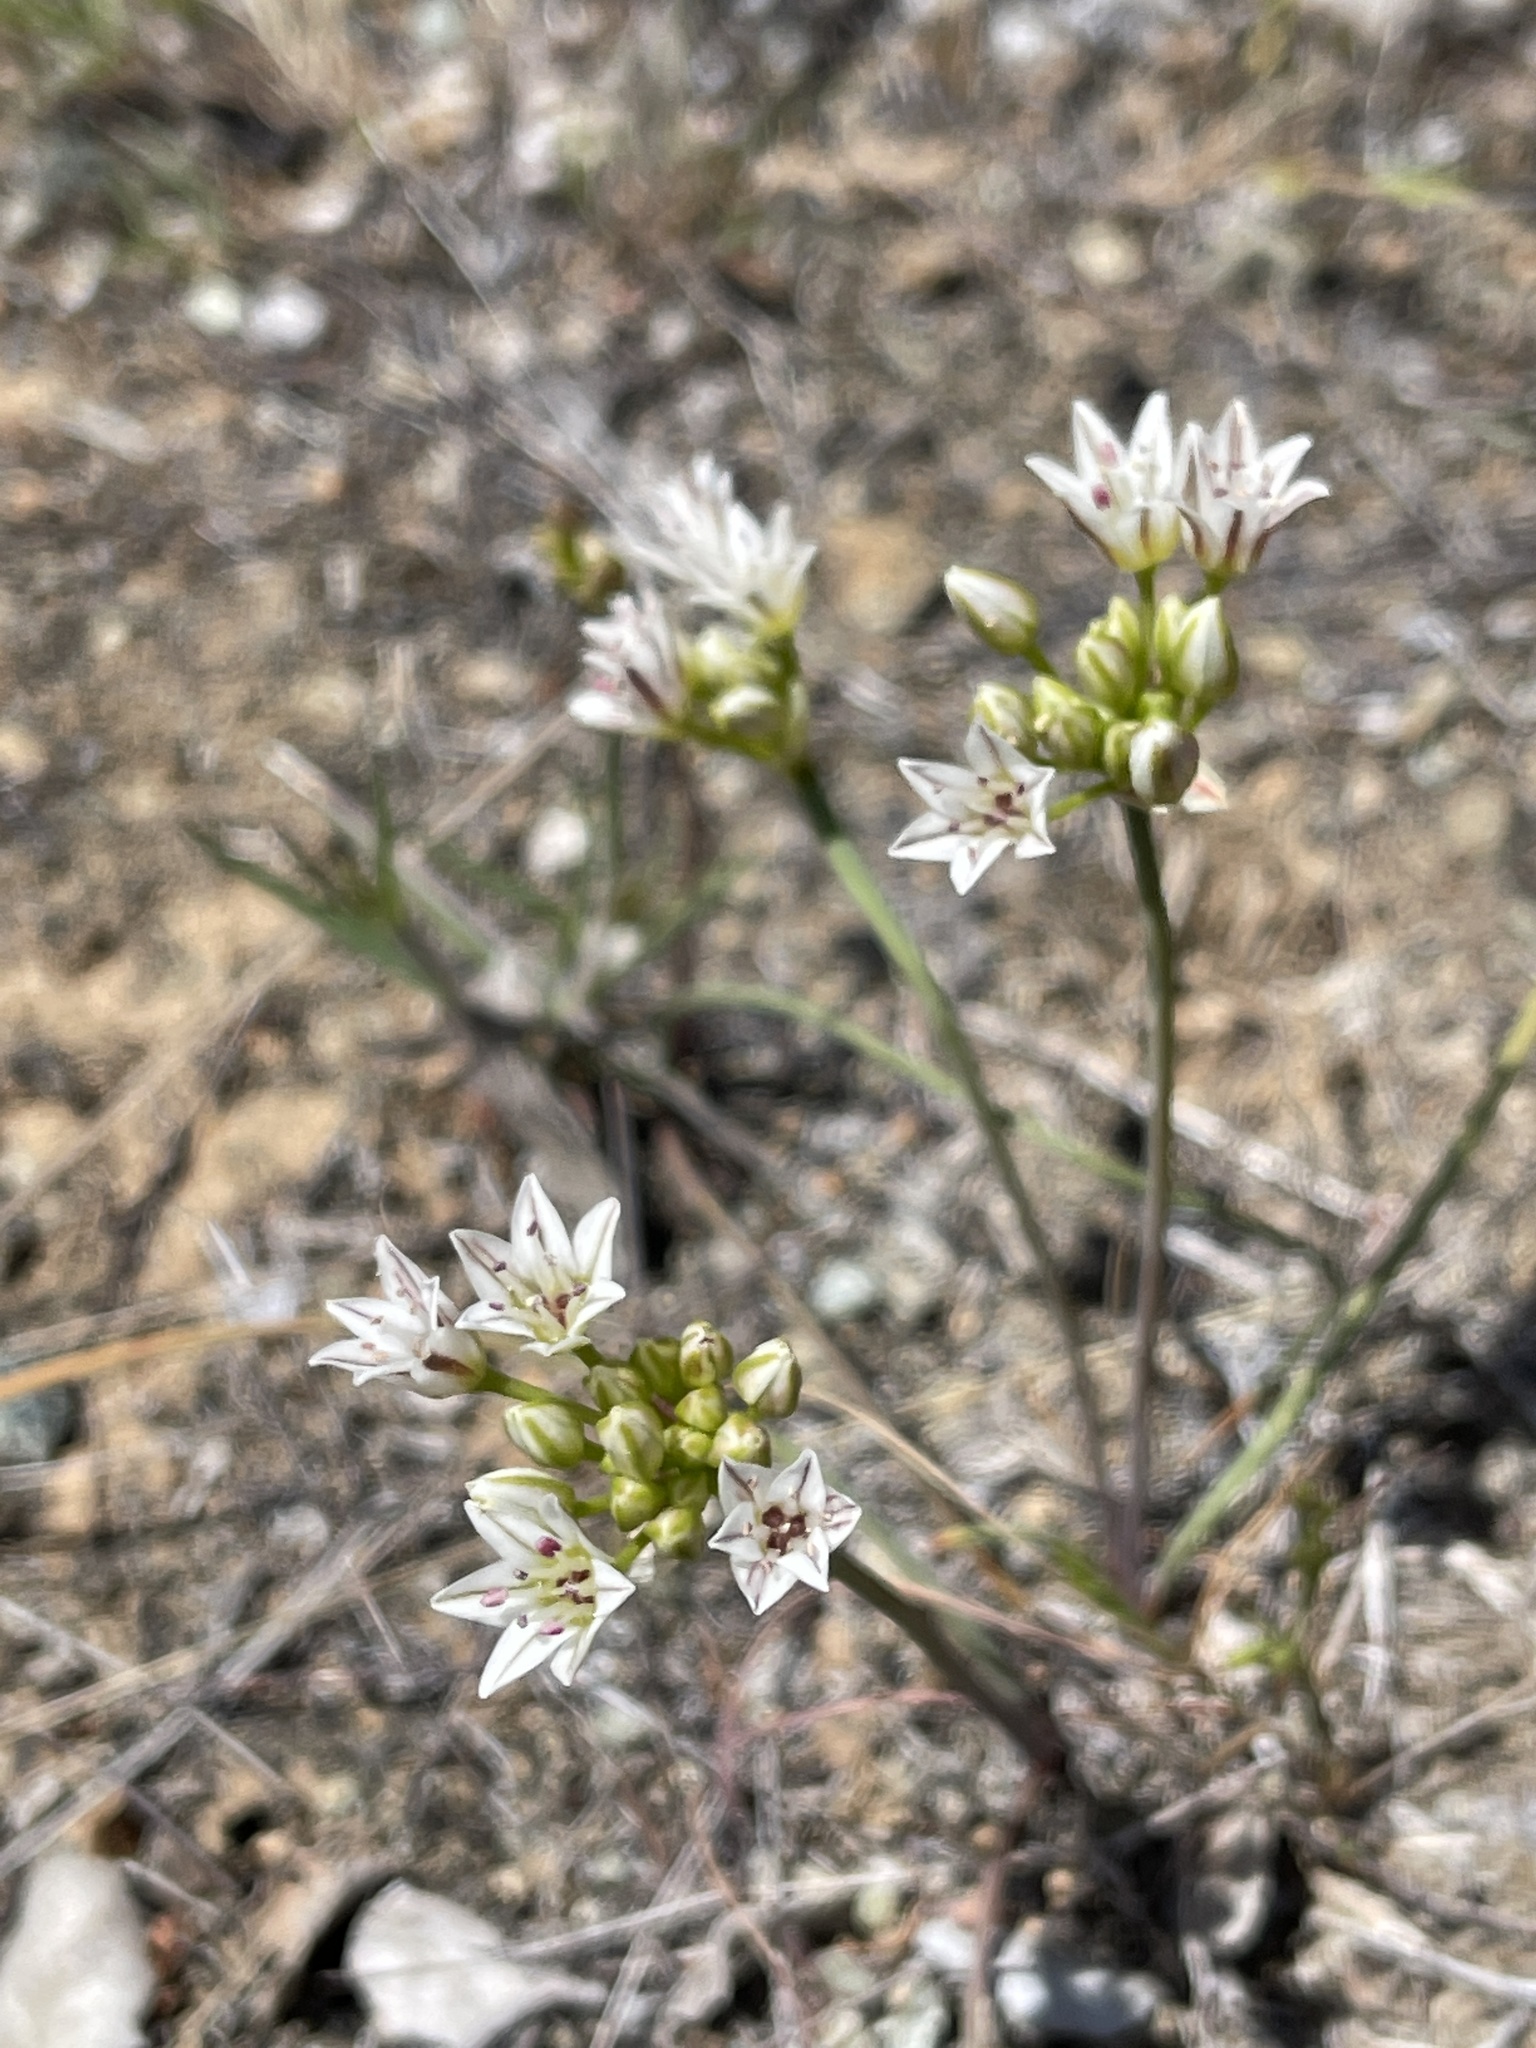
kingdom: Plantae
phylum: Tracheophyta
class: Liliopsida
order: Asparagales
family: Amaryllidaceae
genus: Allium
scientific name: Allium lacunosum
